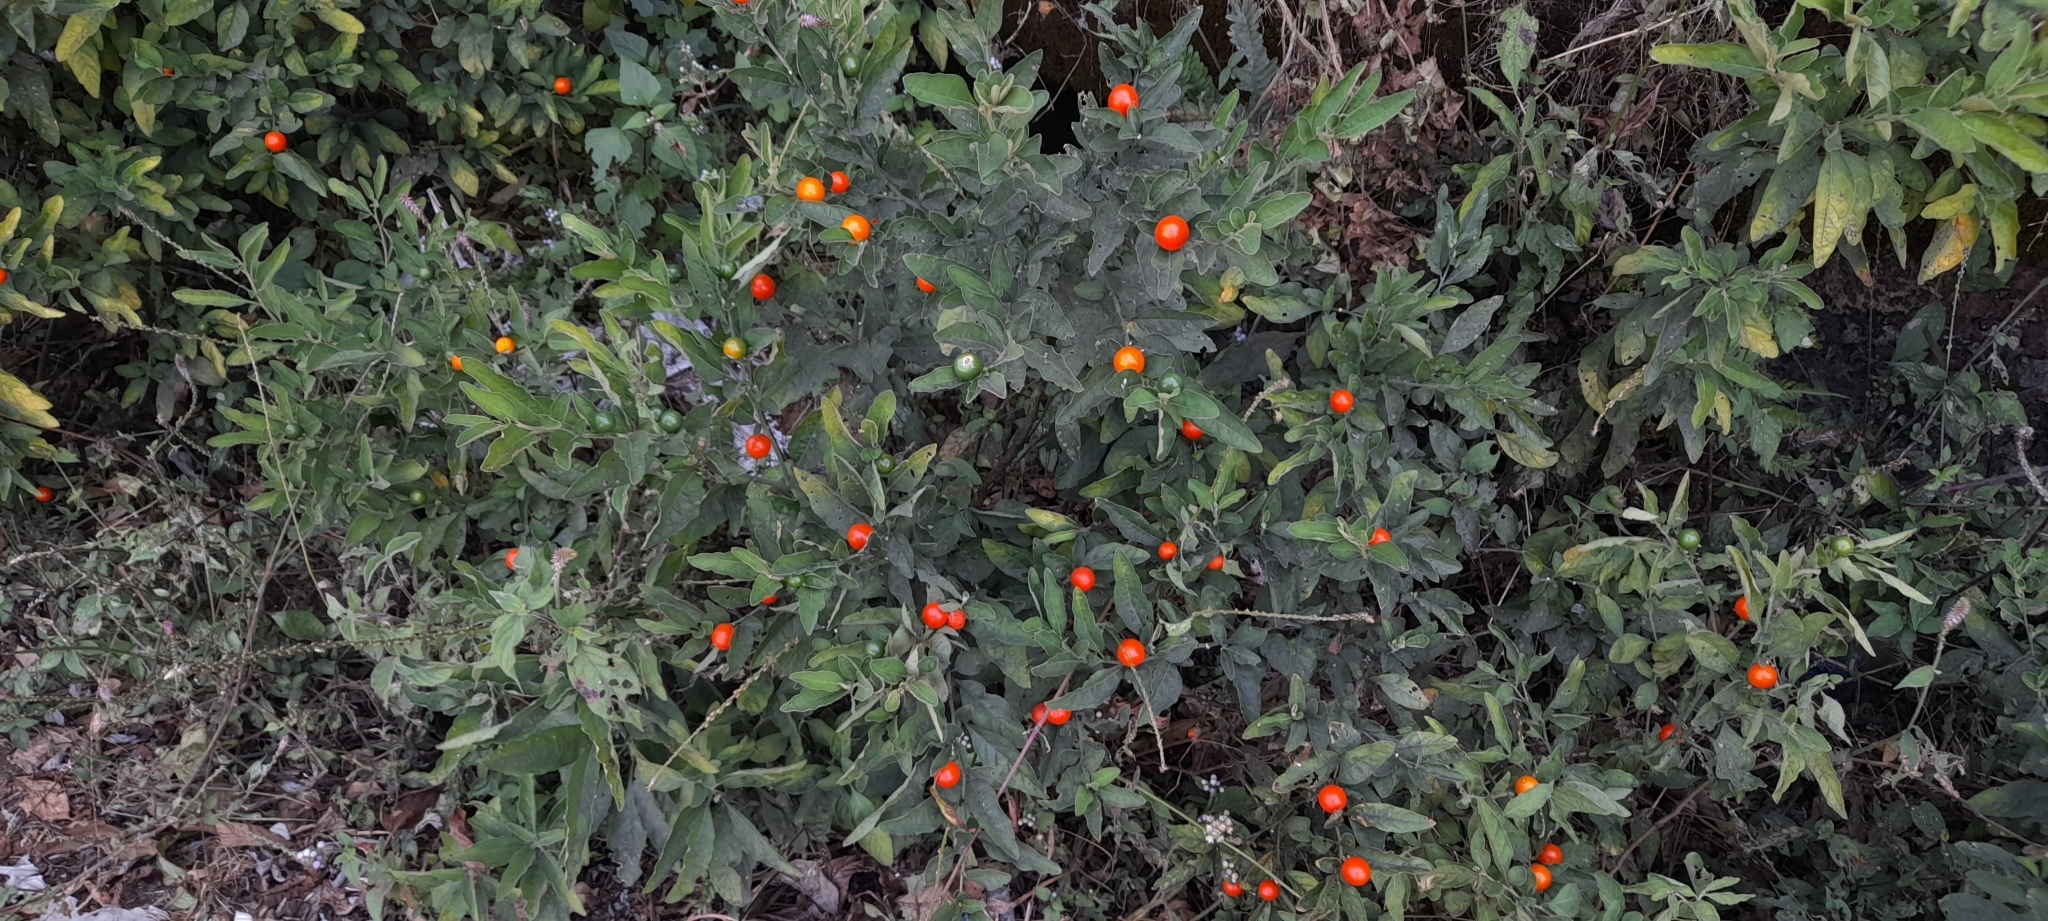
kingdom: Plantae
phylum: Tracheophyta
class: Magnoliopsida
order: Solanales
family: Solanaceae
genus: Solanum
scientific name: Solanum pseudocapsicum
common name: Jerusalem cherry
